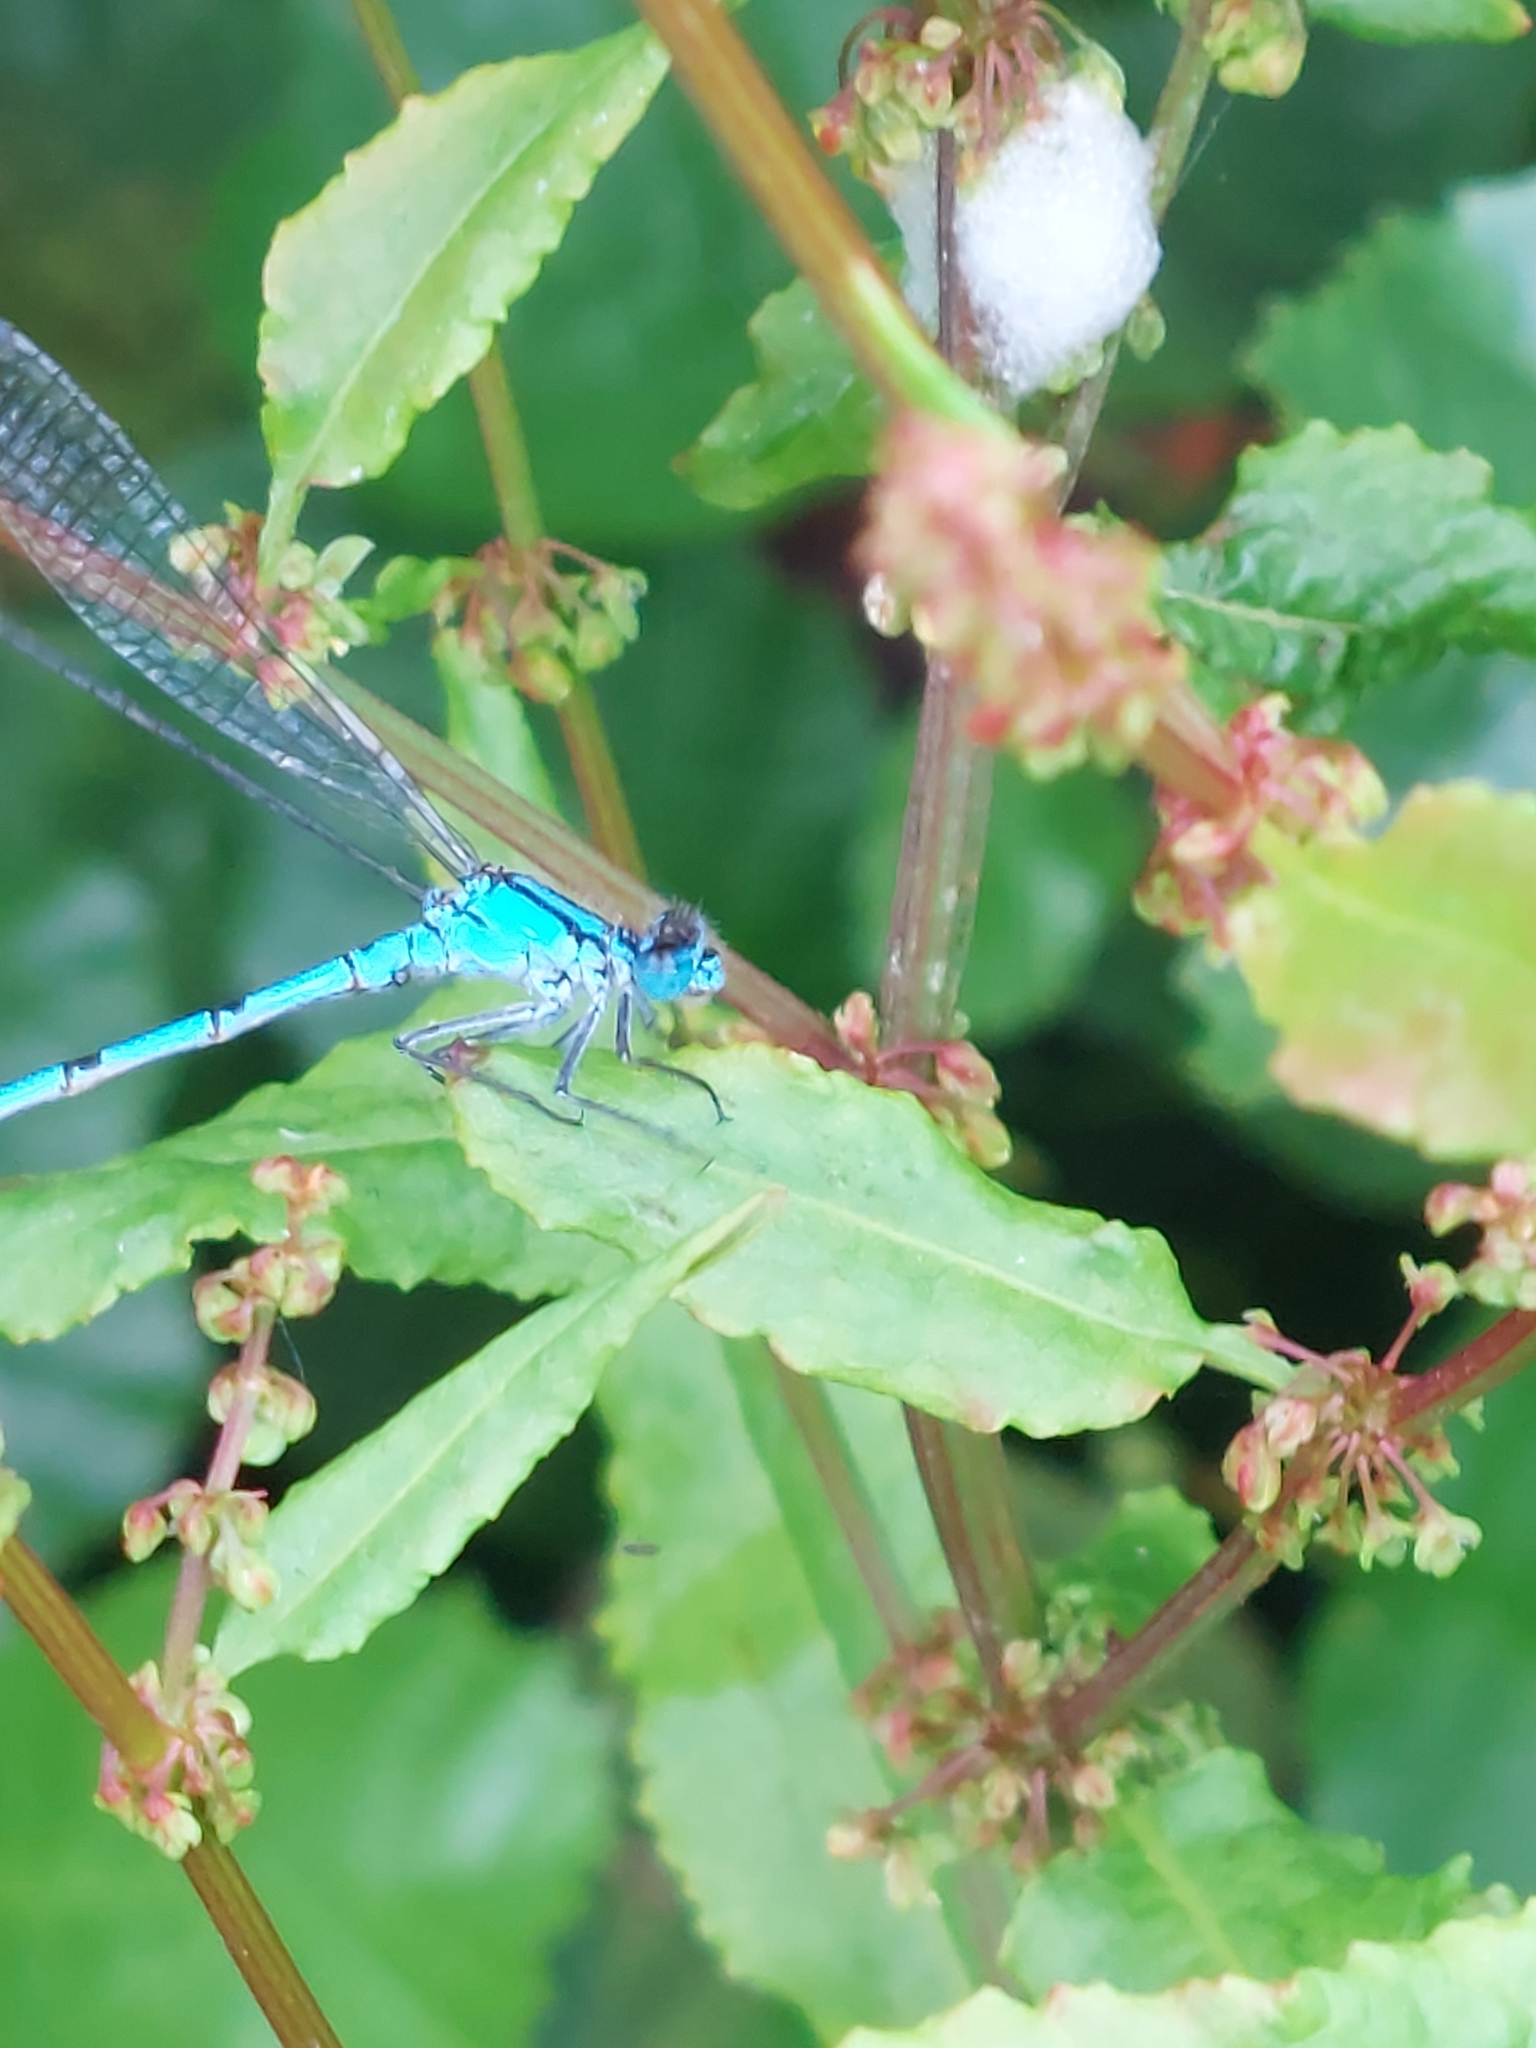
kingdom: Animalia
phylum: Arthropoda
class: Insecta
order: Odonata
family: Coenagrionidae
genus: Enallagma
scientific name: Enallagma cyathigerum
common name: Common blue damselfly
